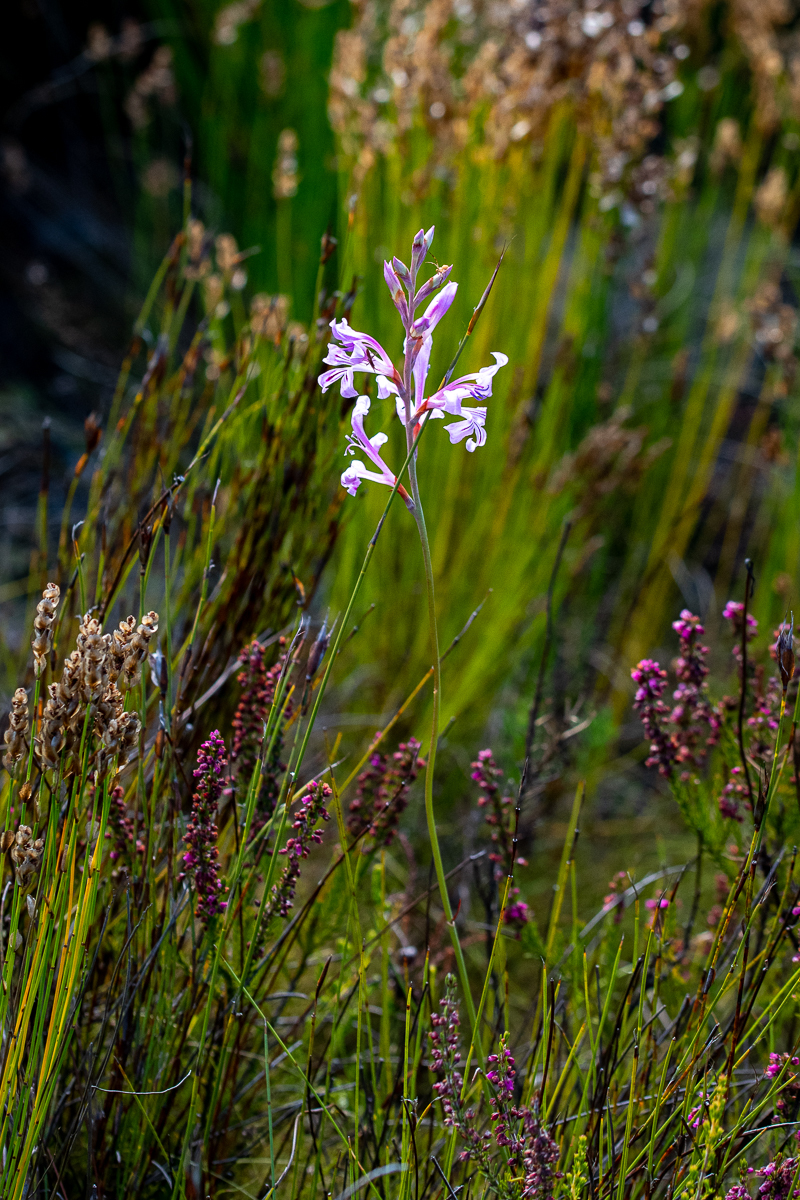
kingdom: Plantae
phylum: Tracheophyta
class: Liliopsida
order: Asparagales
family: Iridaceae
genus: Tritoniopsis
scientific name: Tritoniopsis lata
